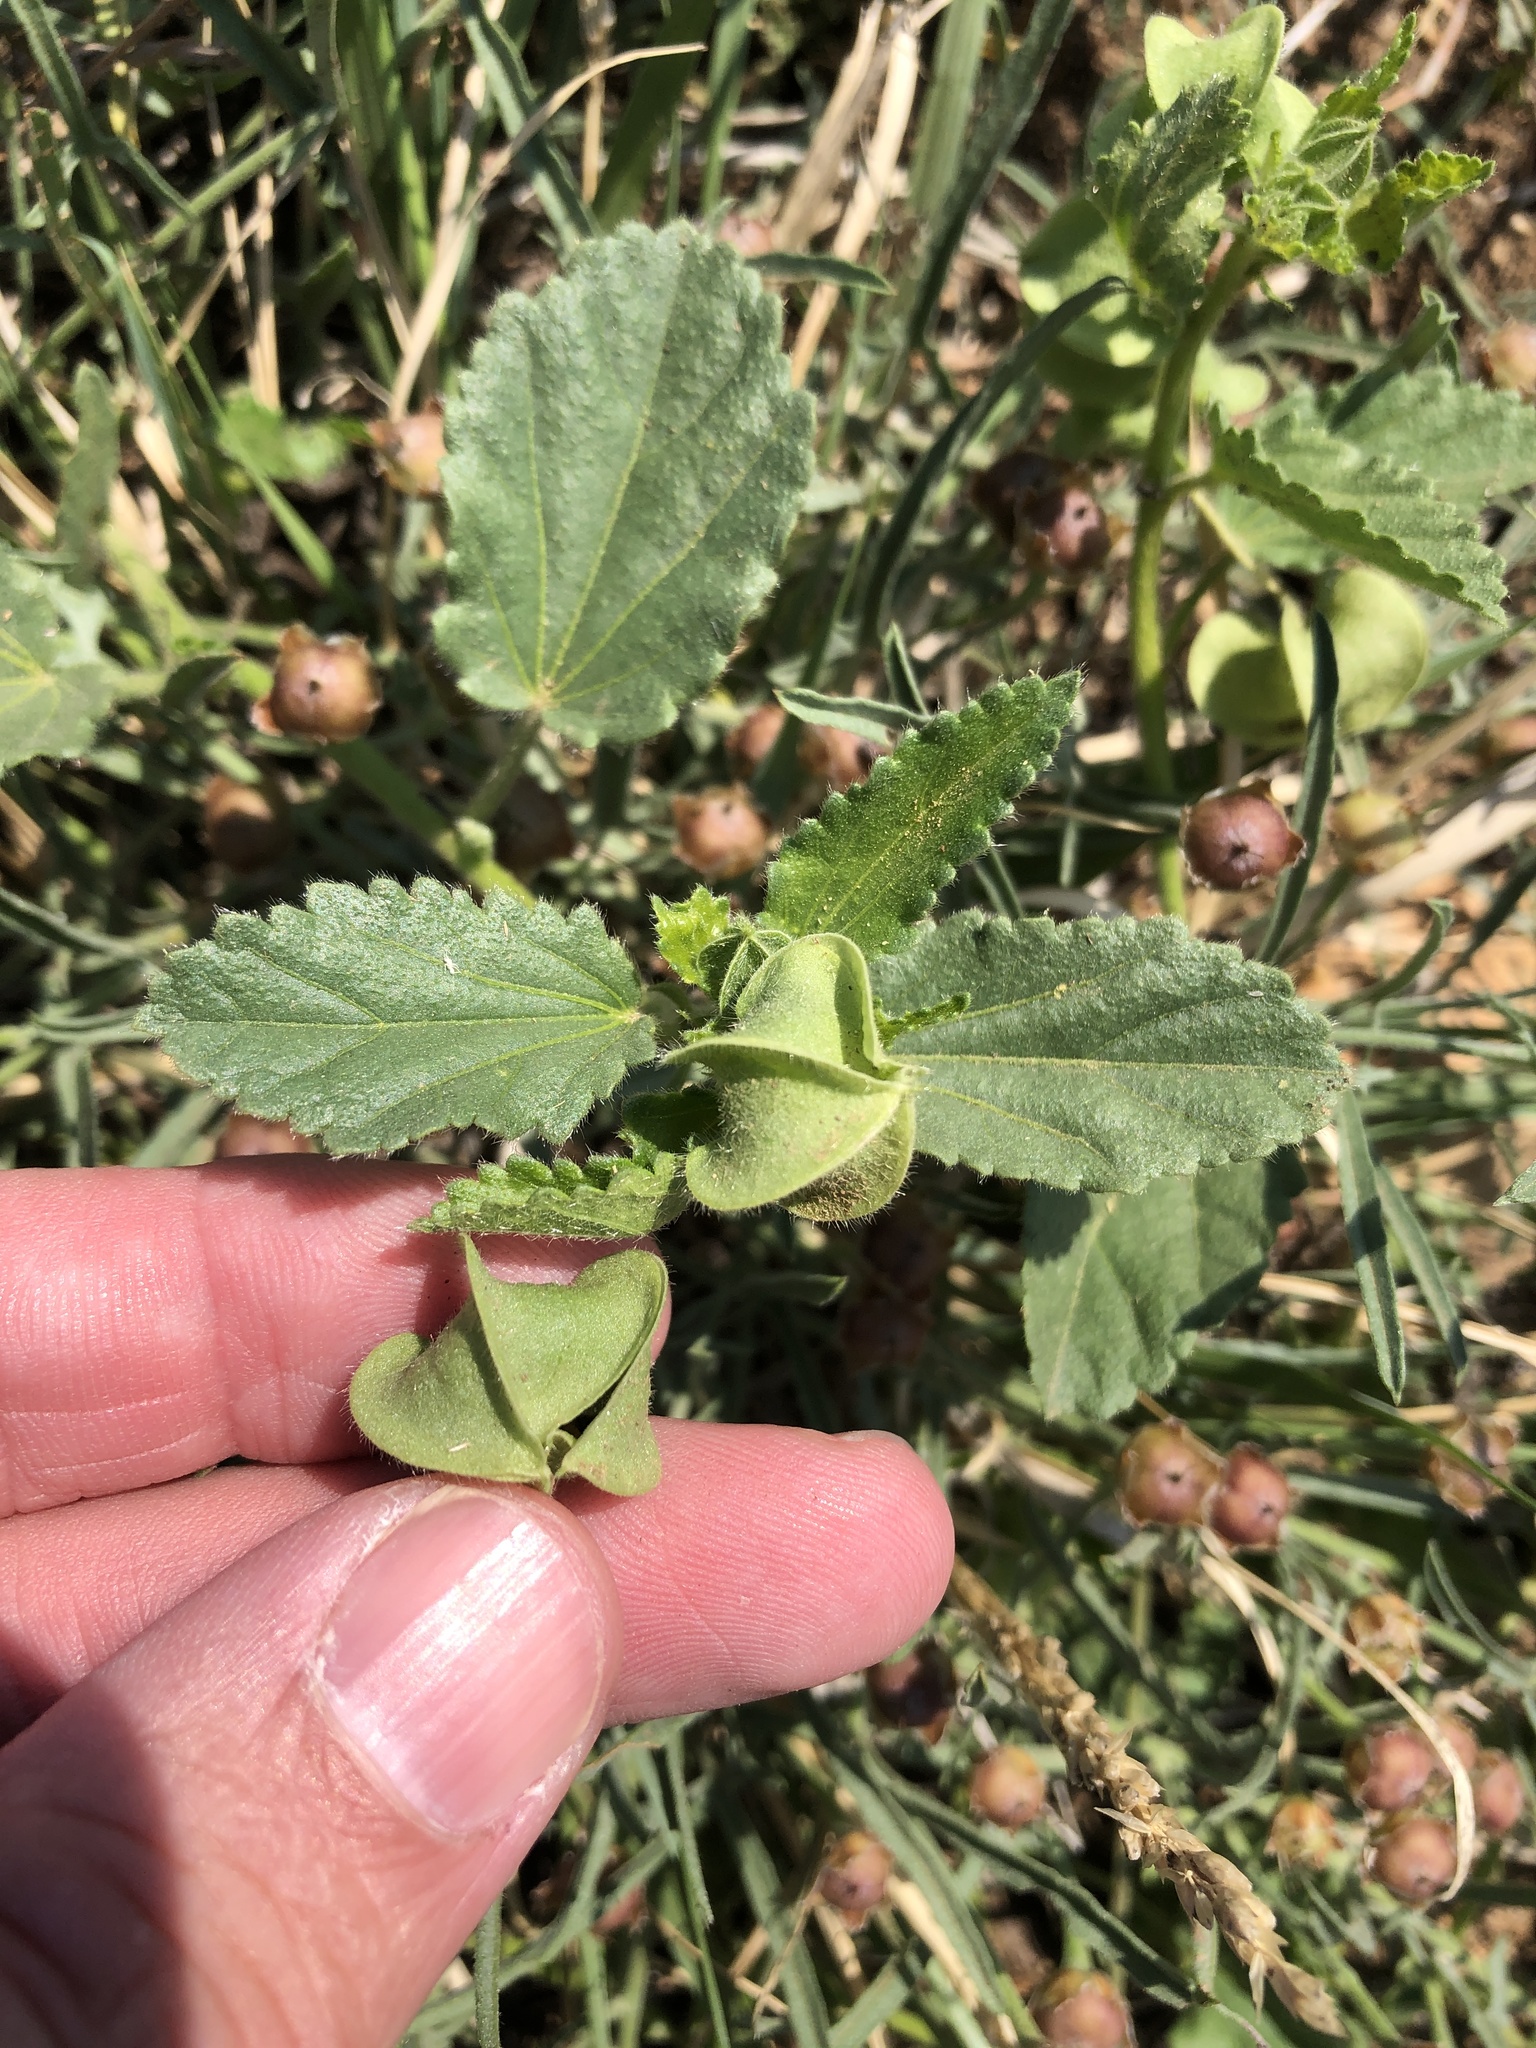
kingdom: Plantae
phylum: Tracheophyta
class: Magnoliopsida
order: Malvales
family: Malvaceae
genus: Rhynchosida
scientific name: Rhynchosida physocalyx
